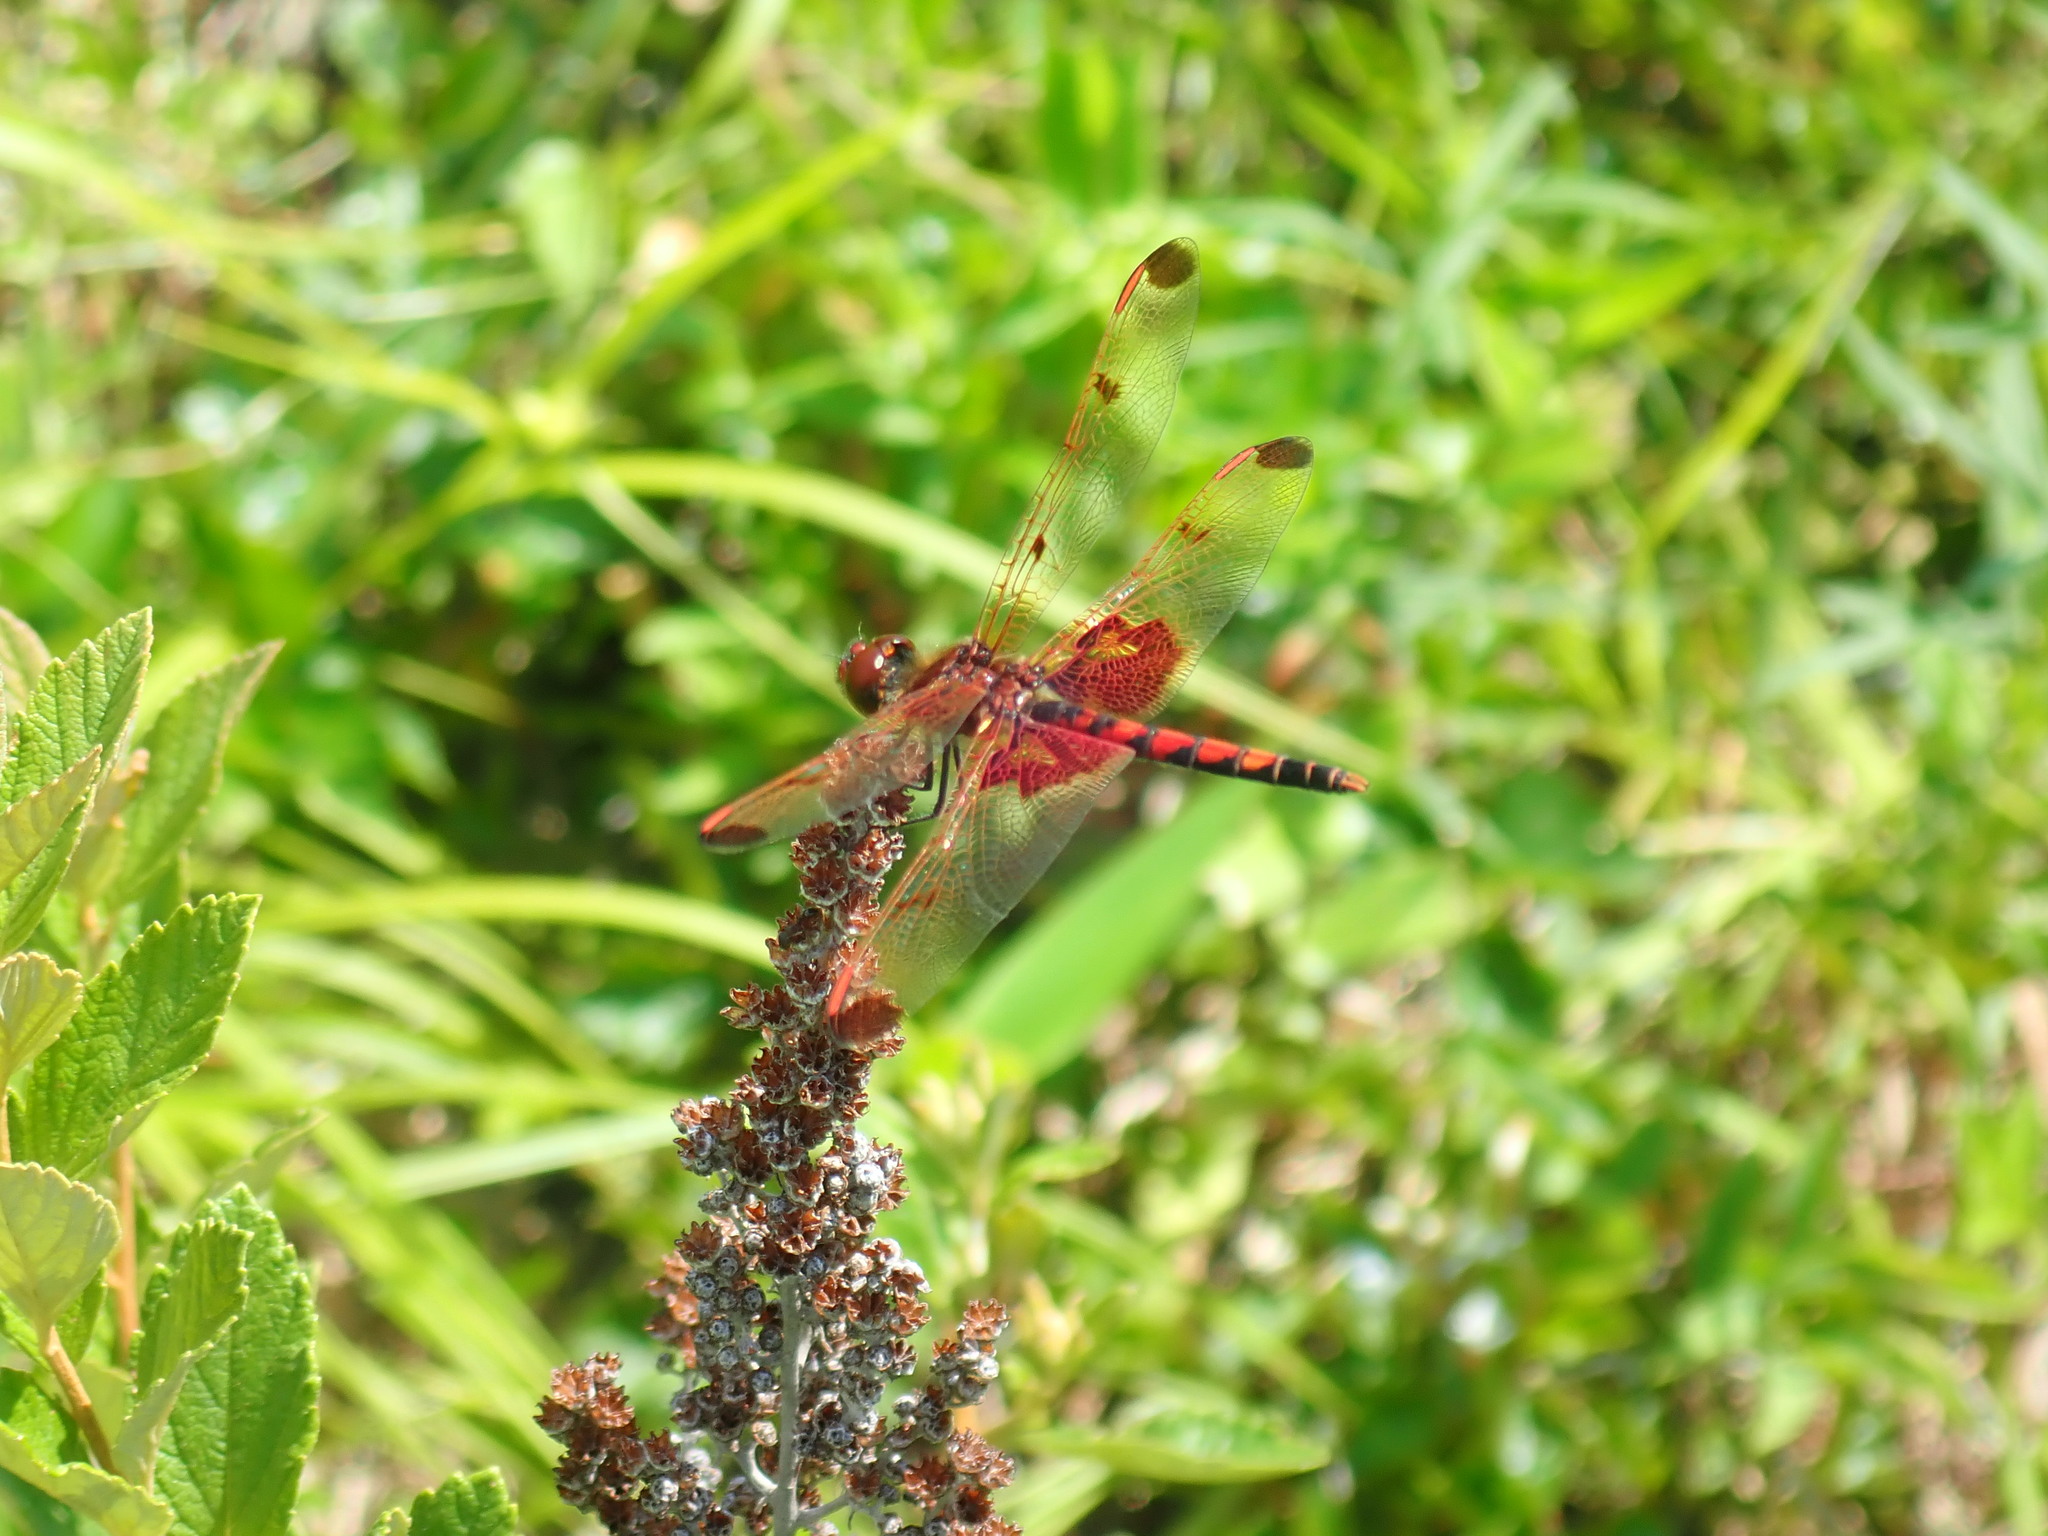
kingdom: Animalia
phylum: Arthropoda
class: Insecta
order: Odonata
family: Libellulidae
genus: Celithemis
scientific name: Celithemis elisa
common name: Calico pennant
